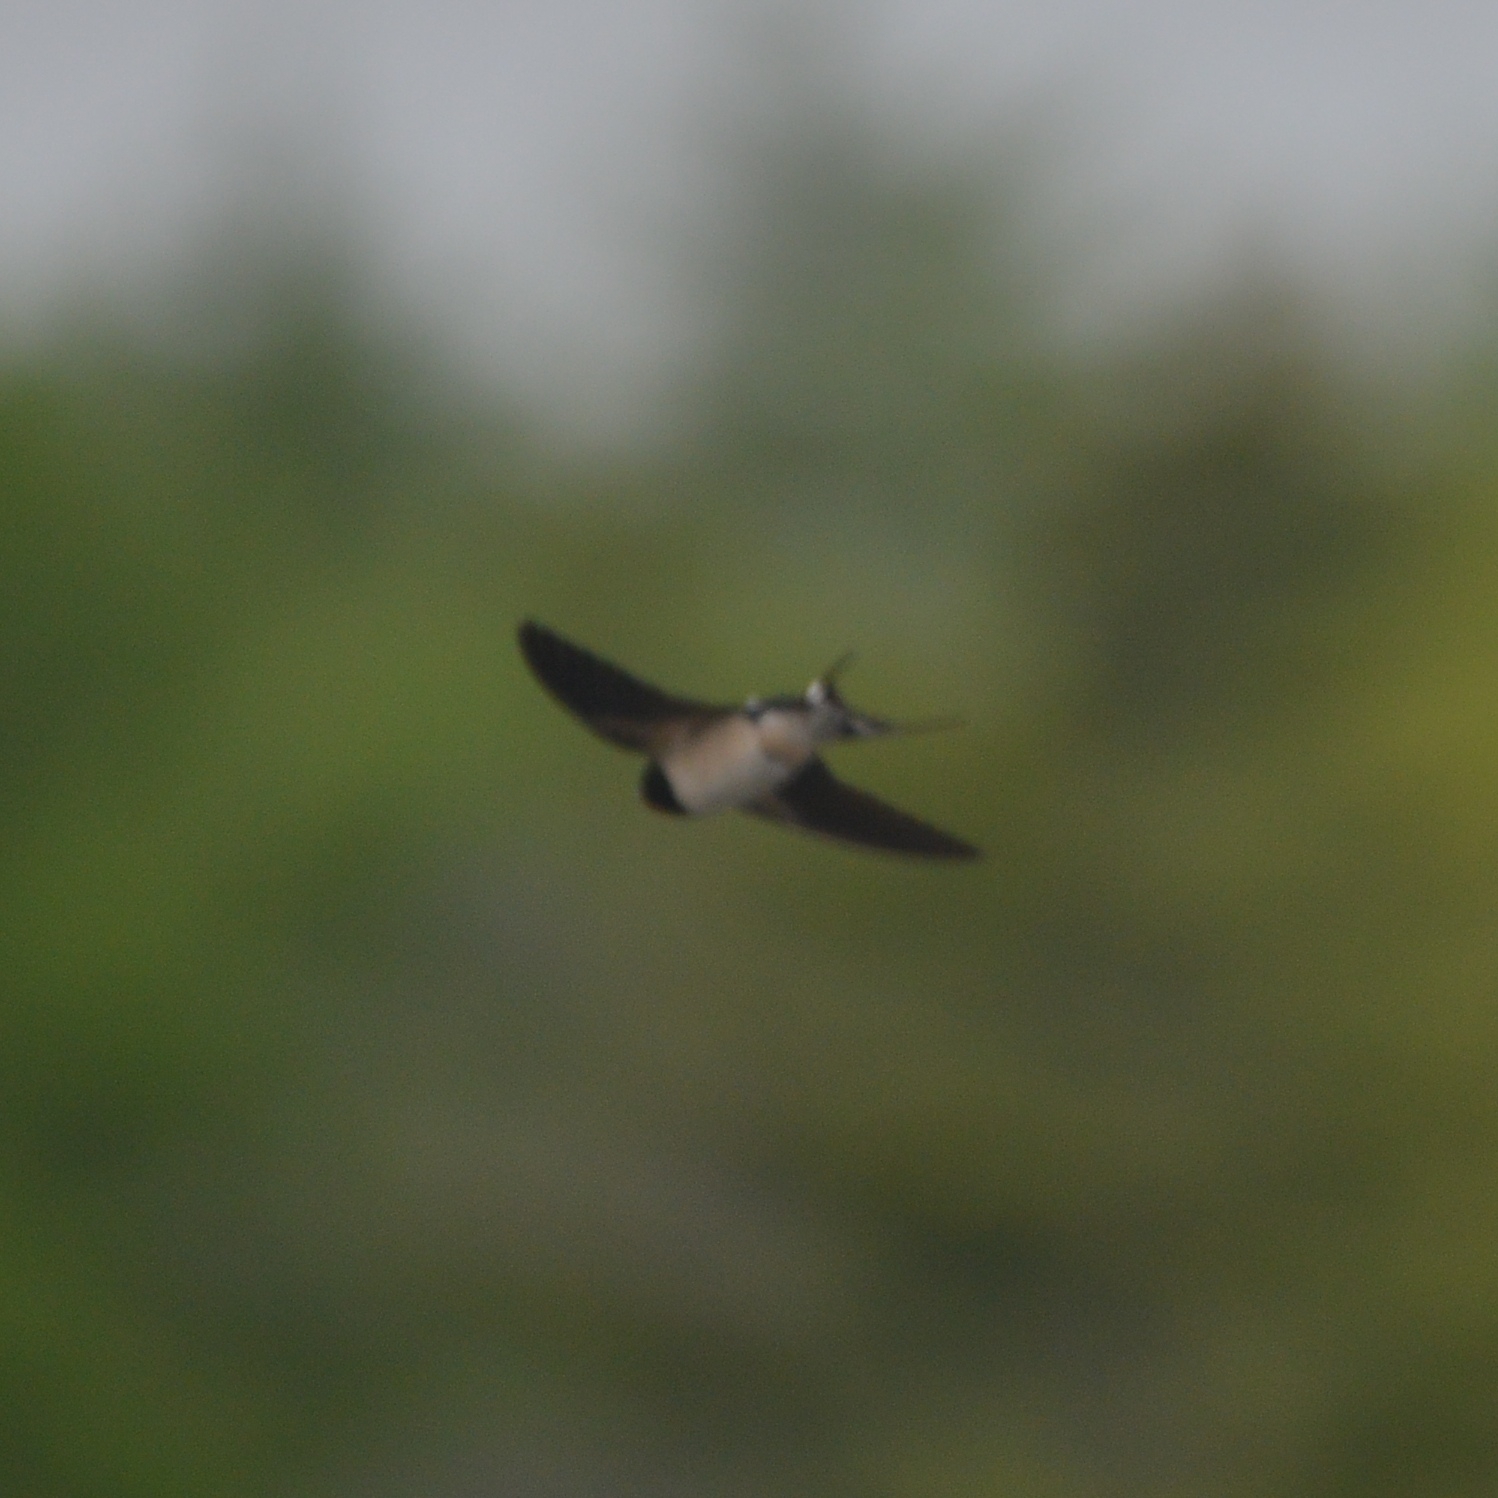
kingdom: Animalia
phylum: Chordata
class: Aves
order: Passeriformes
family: Hirundinidae
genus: Hirundo
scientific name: Hirundo rustica
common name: Barn swallow
